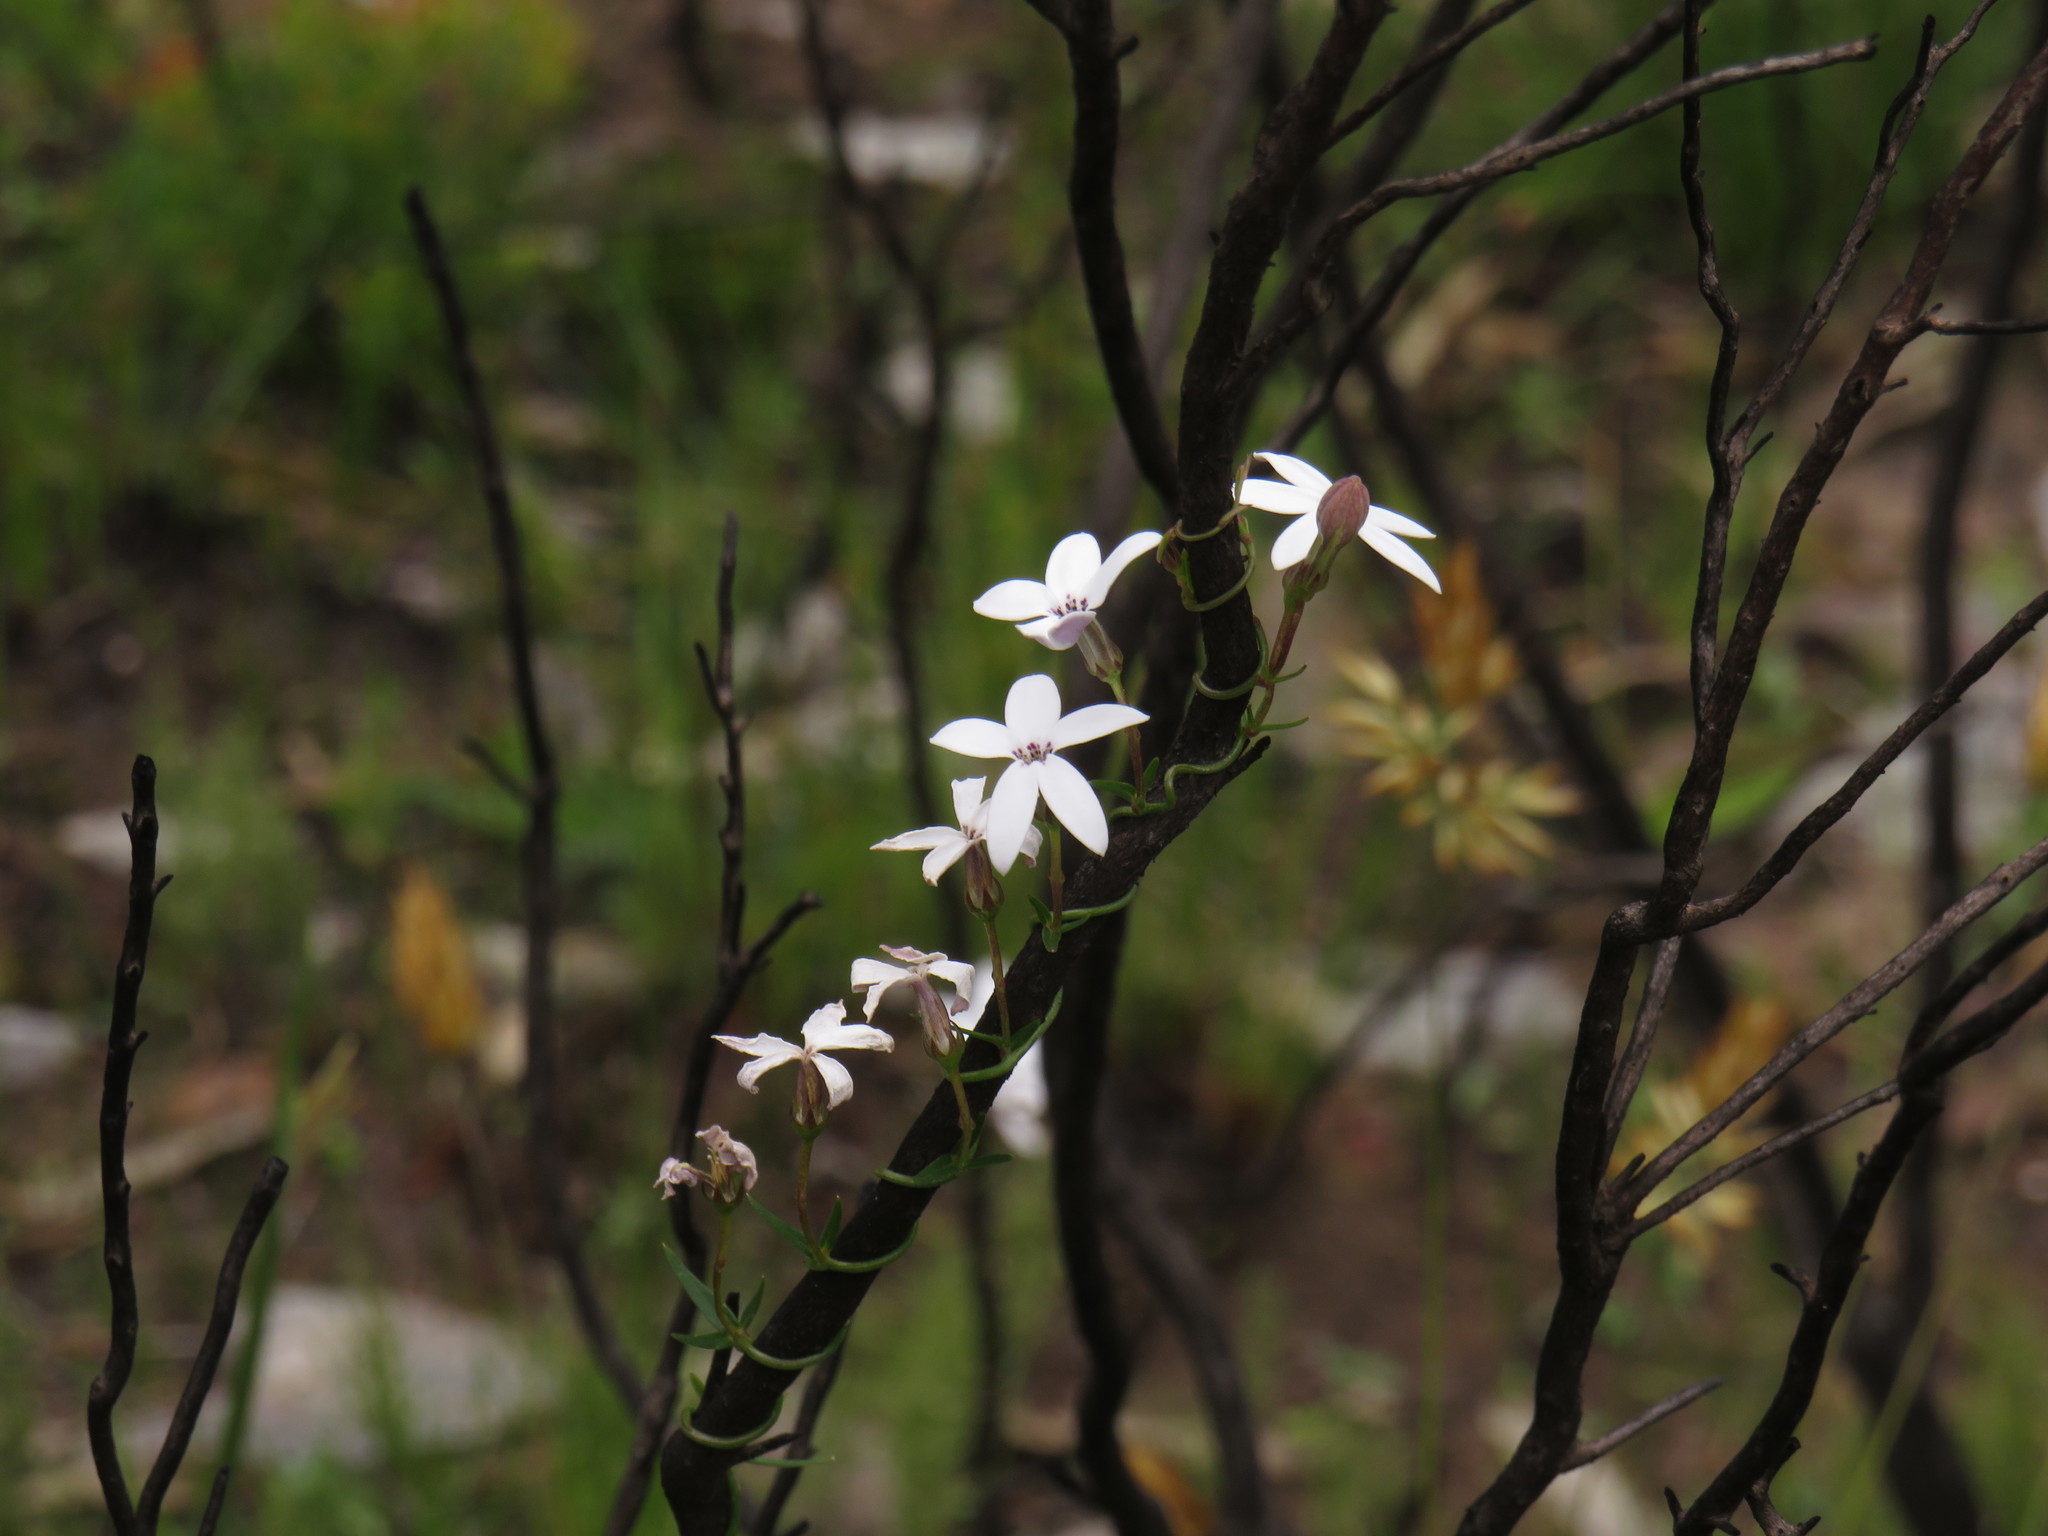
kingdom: Plantae
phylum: Tracheophyta
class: Magnoliopsida
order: Asterales
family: Campanulaceae
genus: Cyphia
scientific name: Cyphia volubilis
